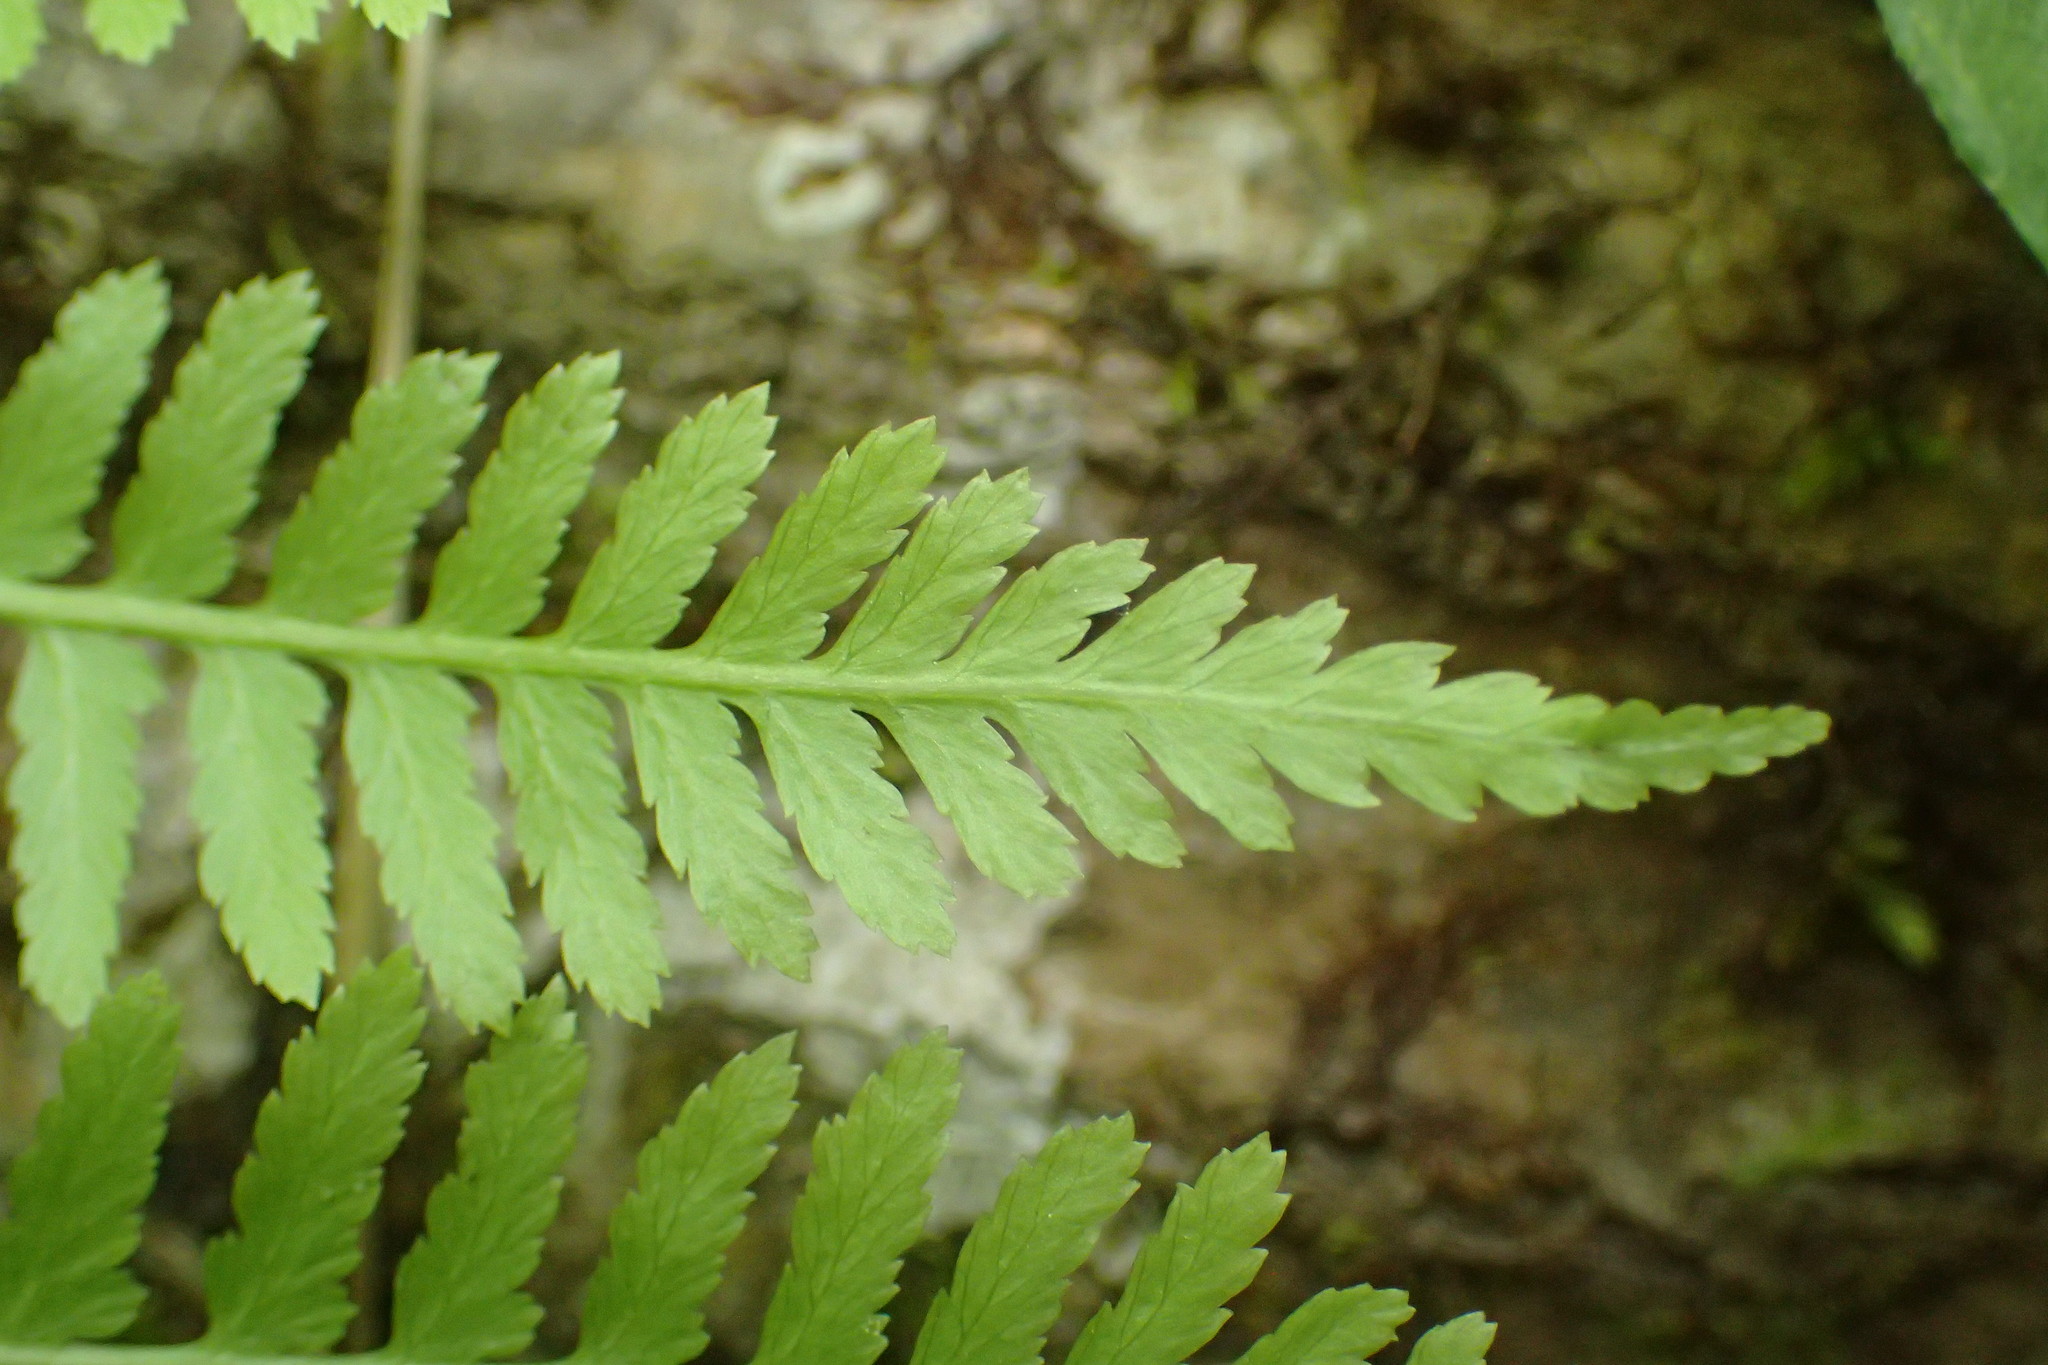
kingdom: Plantae
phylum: Tracheophyta
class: Polypodiopsida
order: Polypodiales
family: Athyriaceae
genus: Athyrium
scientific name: Athyrium asplenioides
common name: Southern lady fern
